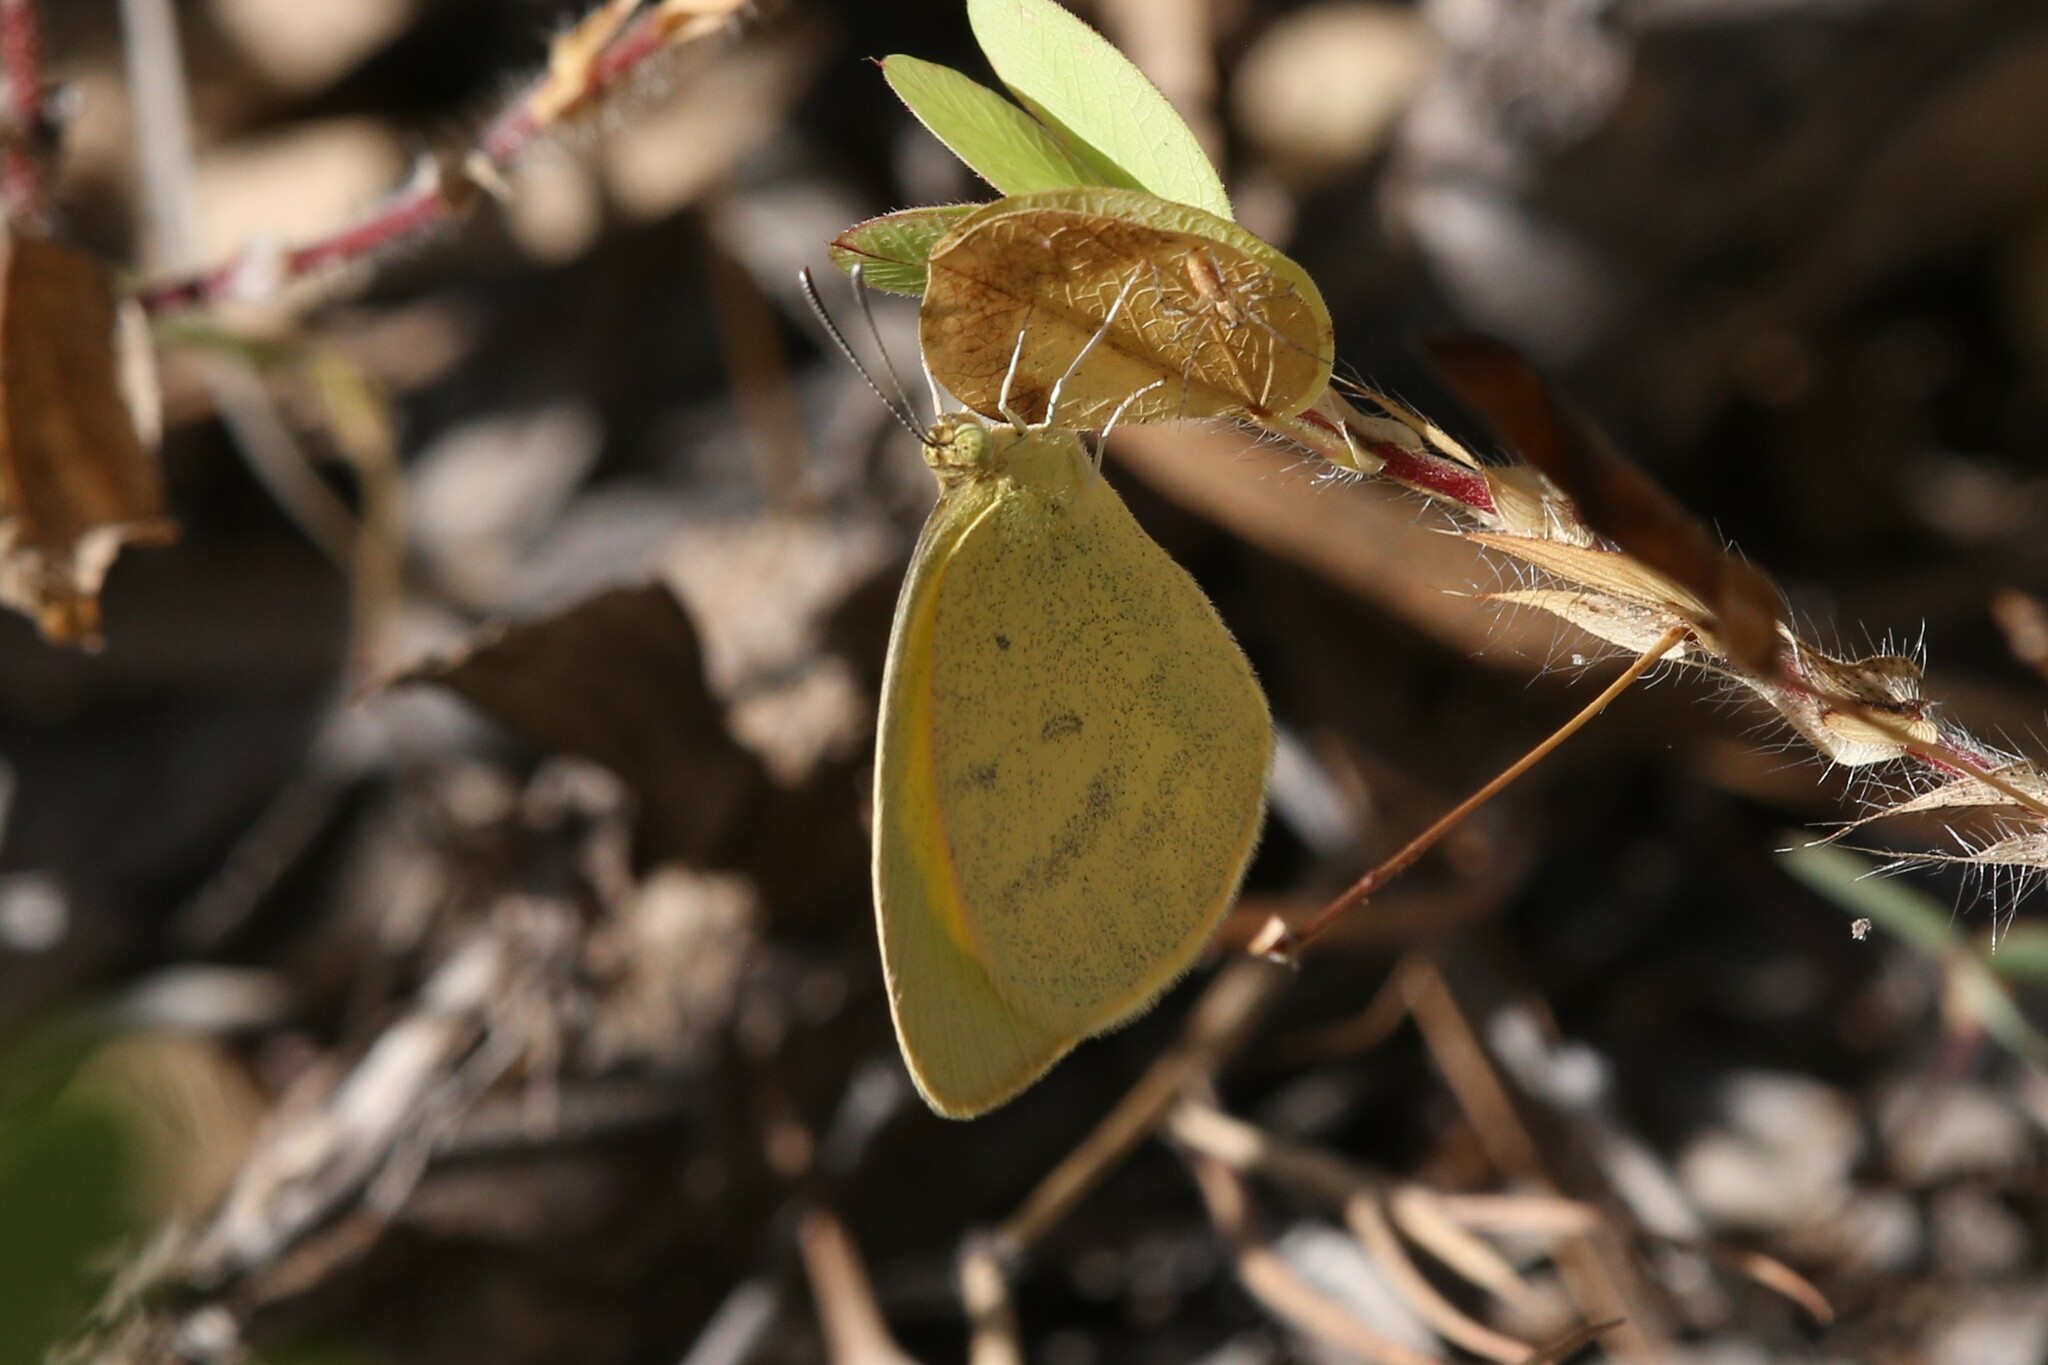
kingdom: Animalia
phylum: Arthropoda
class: Insecta
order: Lepidoptera
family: Pieridae
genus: Eurema
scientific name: Eurema herla
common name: Macleay's grass yellow
